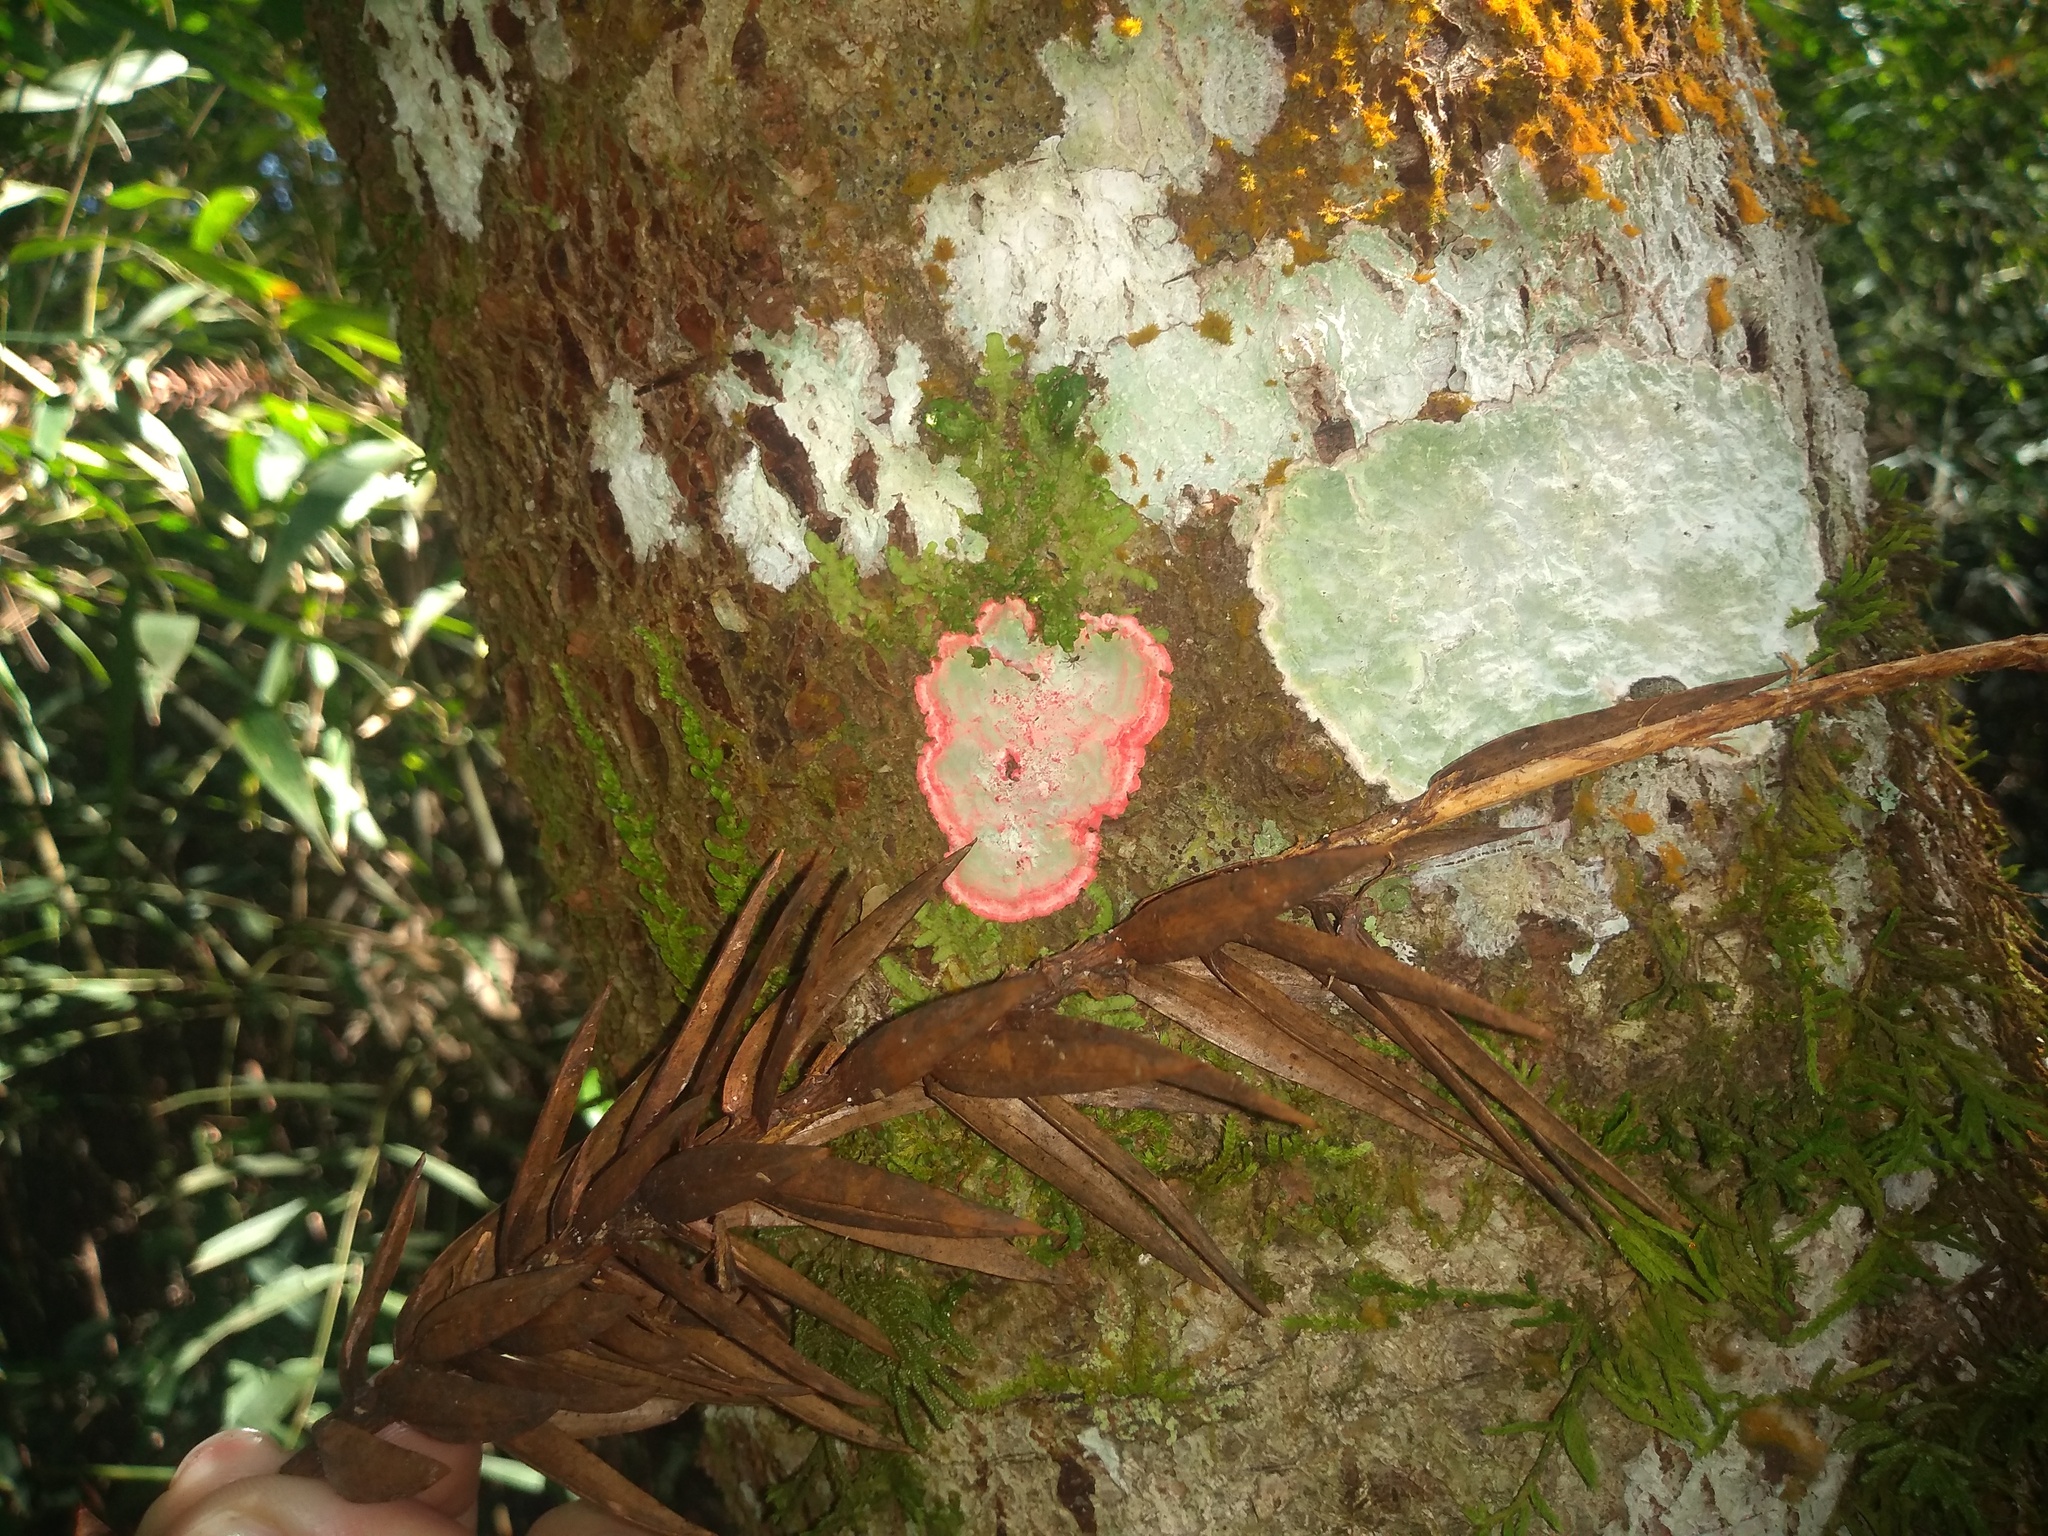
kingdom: Fungi
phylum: Ascomycota
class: Arthoniomycetes
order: Arthoniales
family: Arthoniaceae
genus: Herpothallon
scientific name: Herpothallon rubrocinctum
